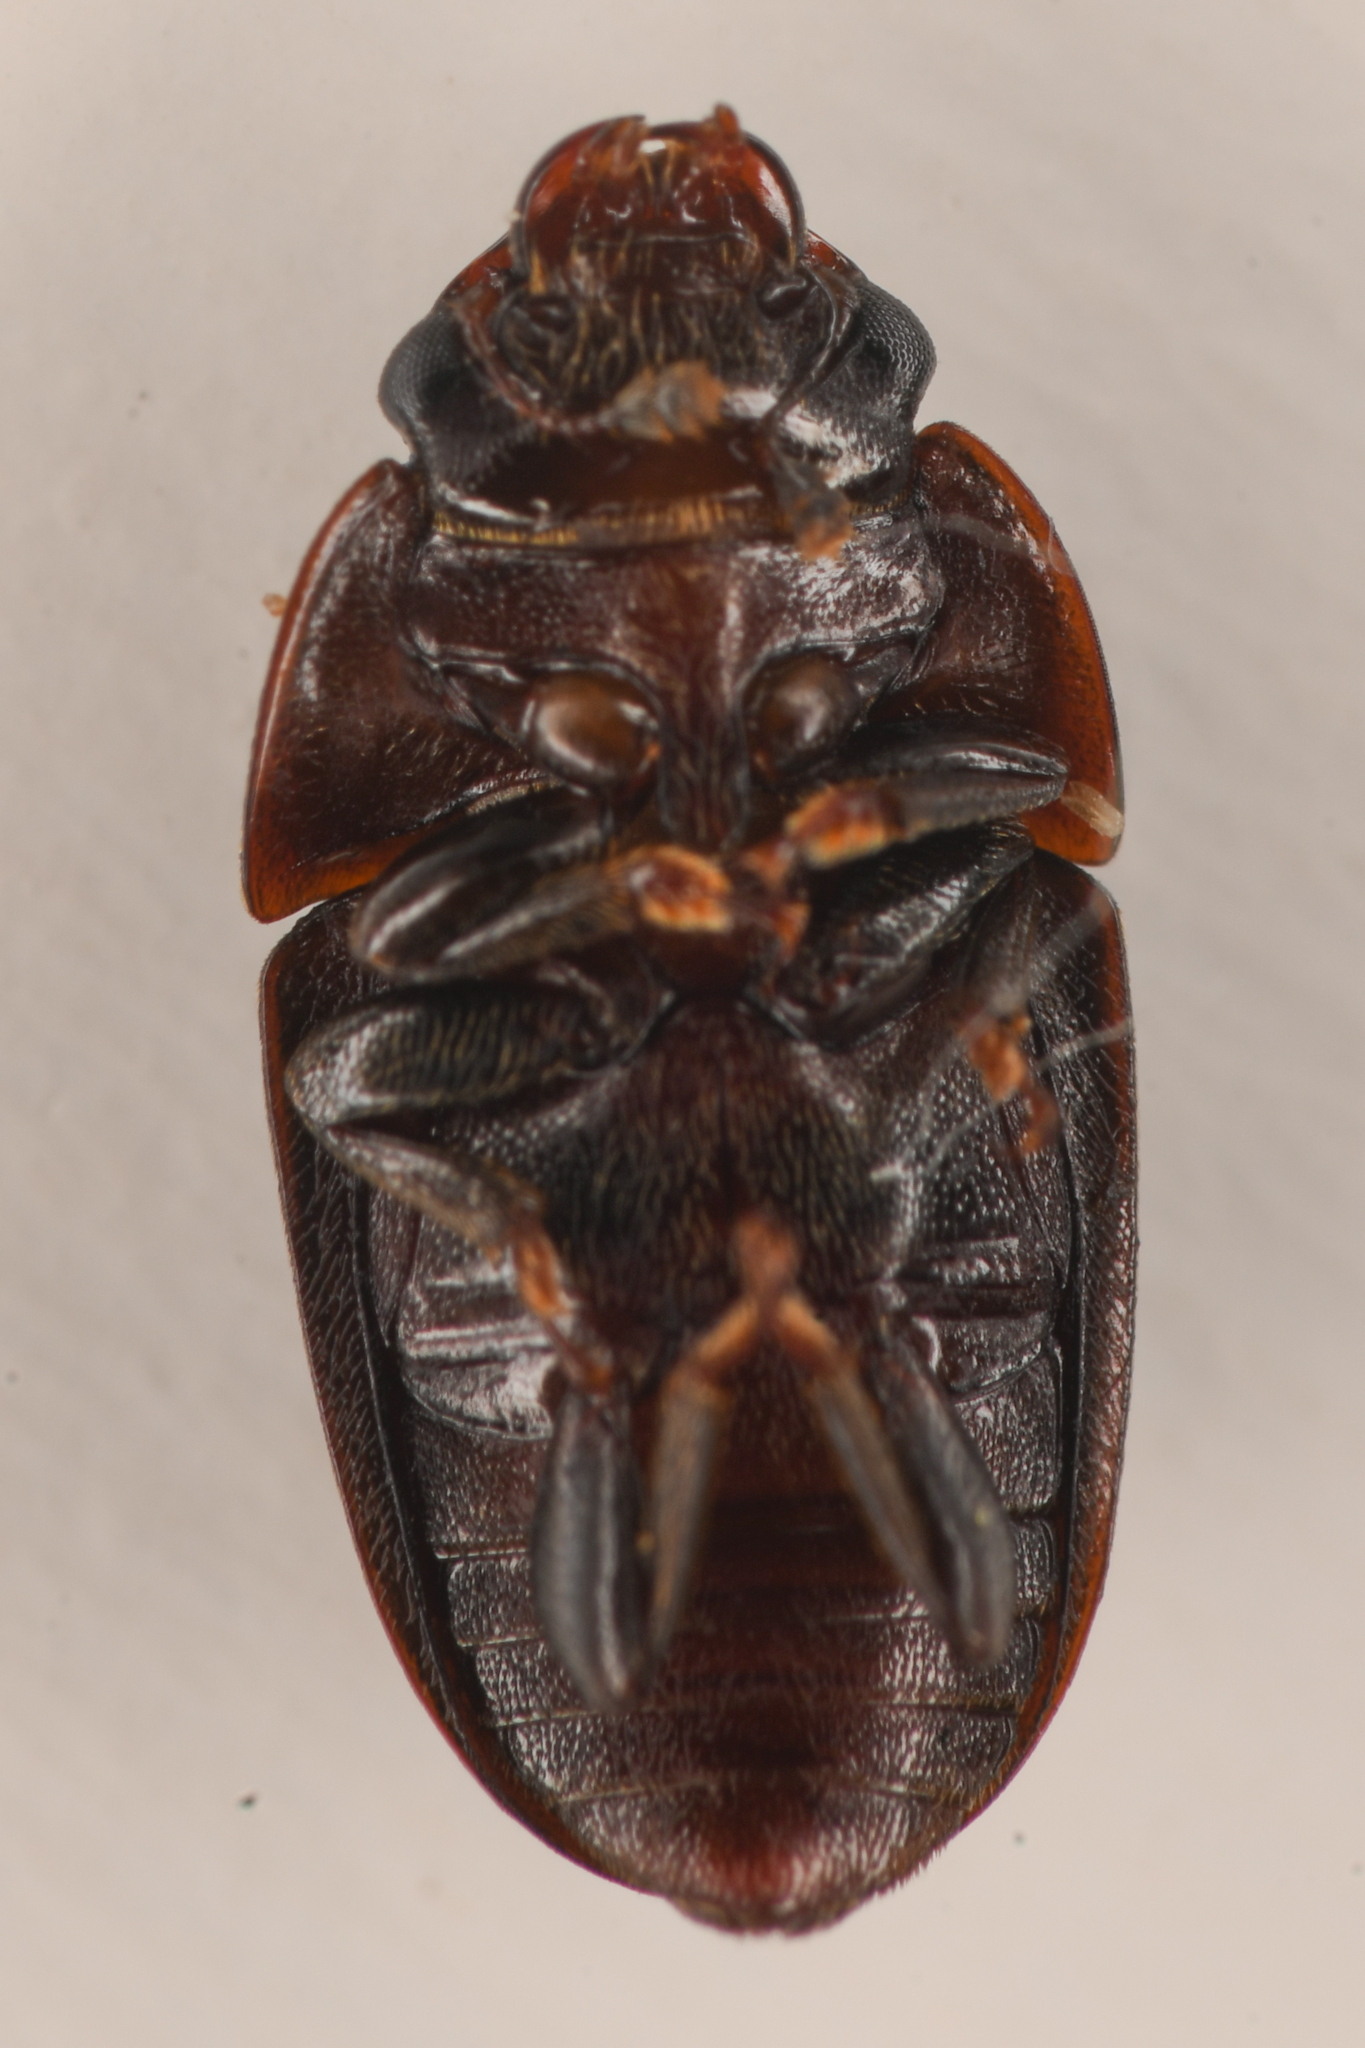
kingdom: Animalia
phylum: Arthropoda
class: Insecta
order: Coleoptera
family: Nitidulidae
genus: Cryptarcha
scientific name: Cryptarcha ampla
